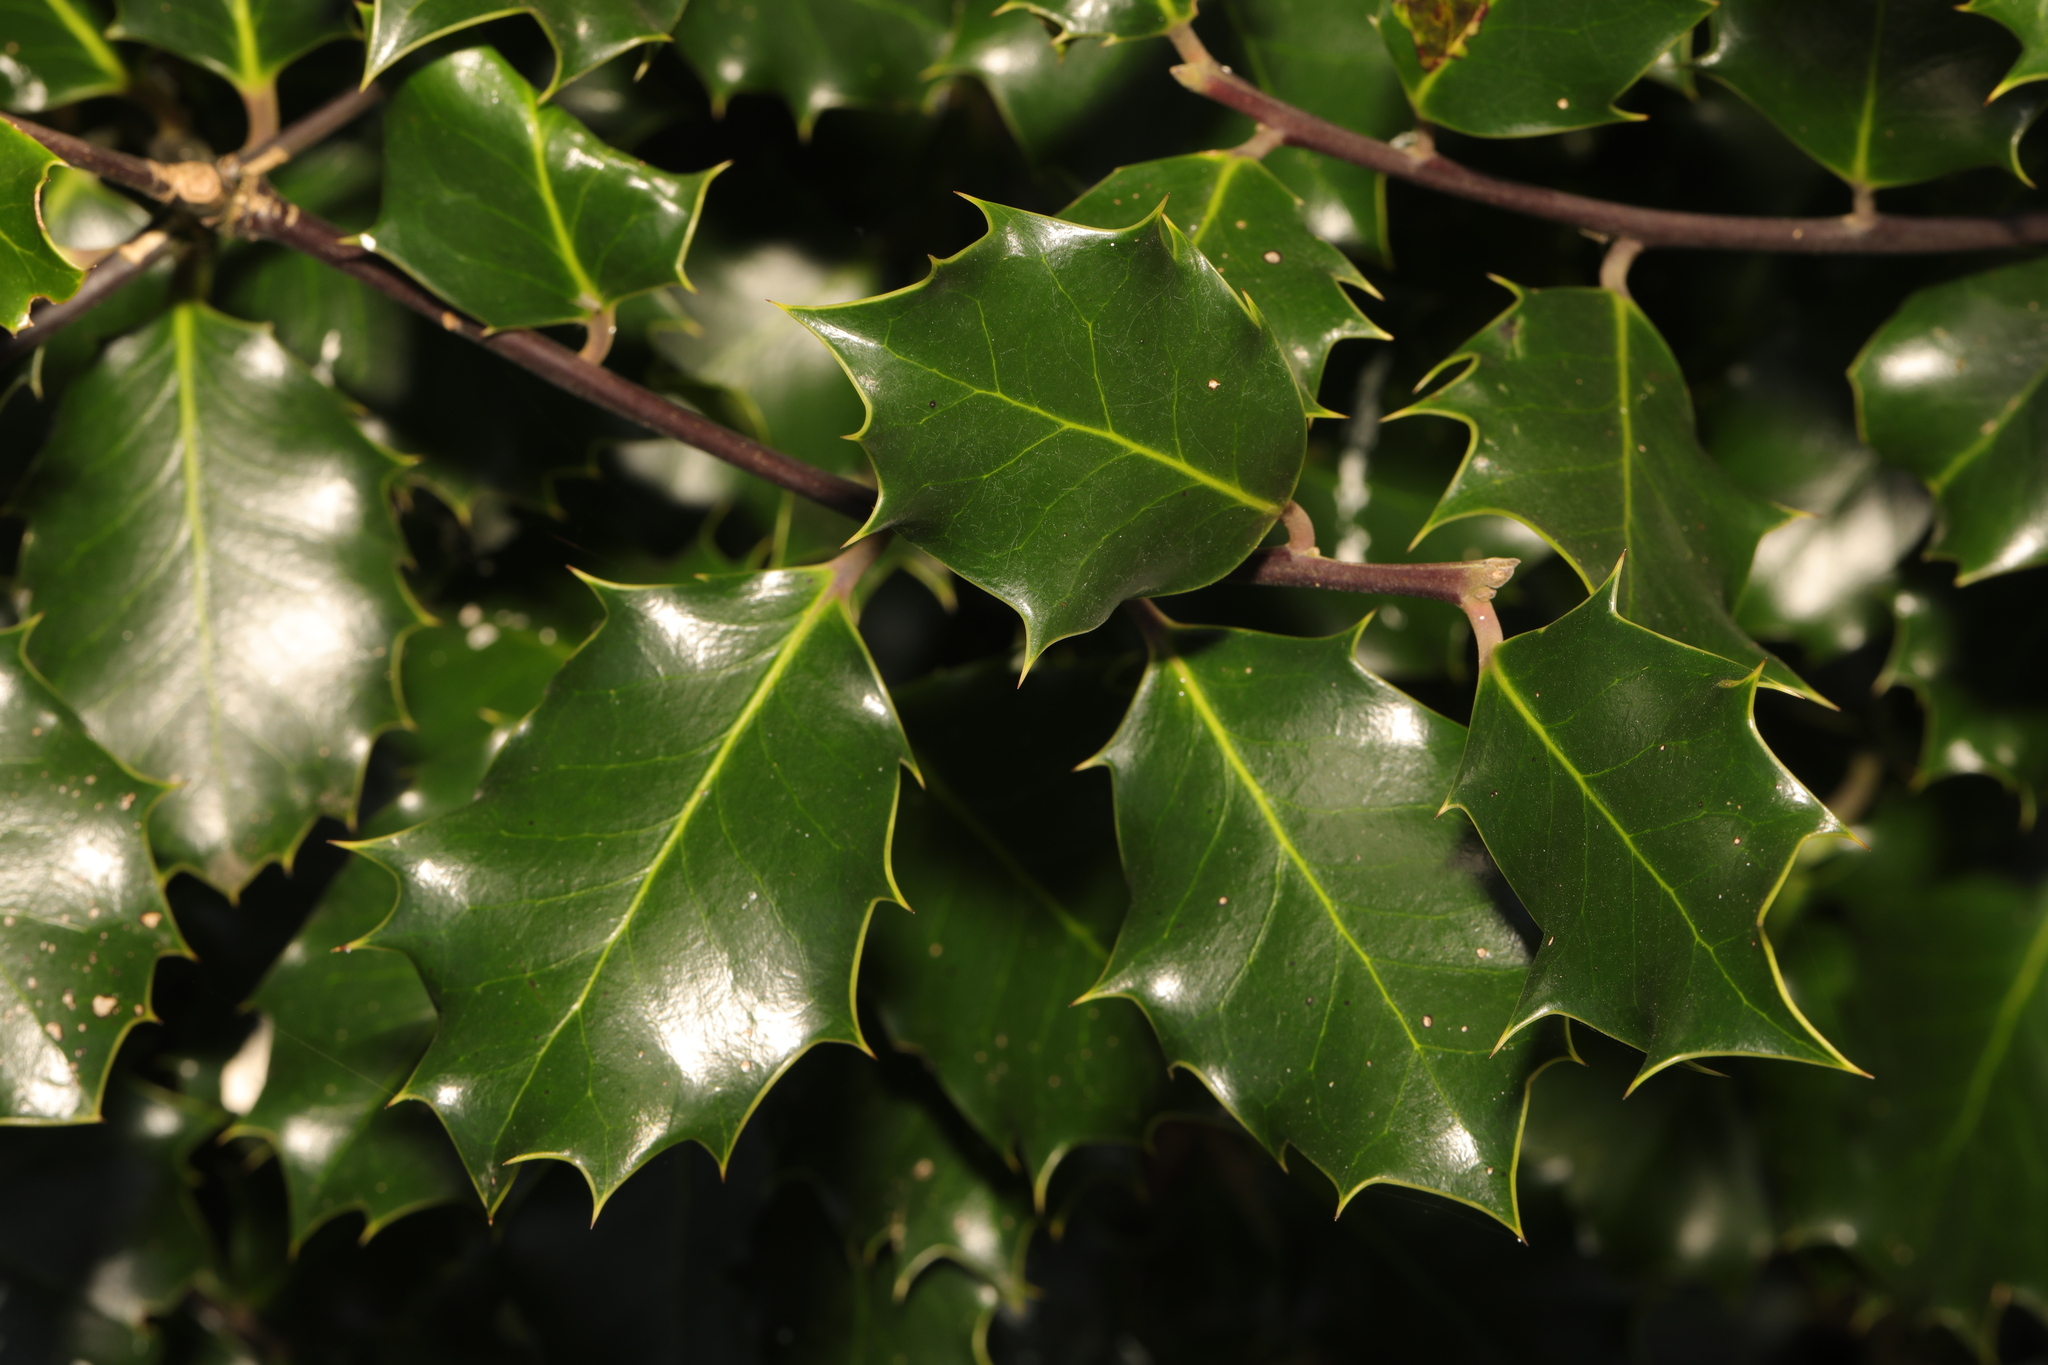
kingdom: Plantae
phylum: Tracheophyta
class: Magnoliopsida
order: Aquifoliales
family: Aquifoliaceae
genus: Ilex
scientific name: Ilex aquifolium
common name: English holly
